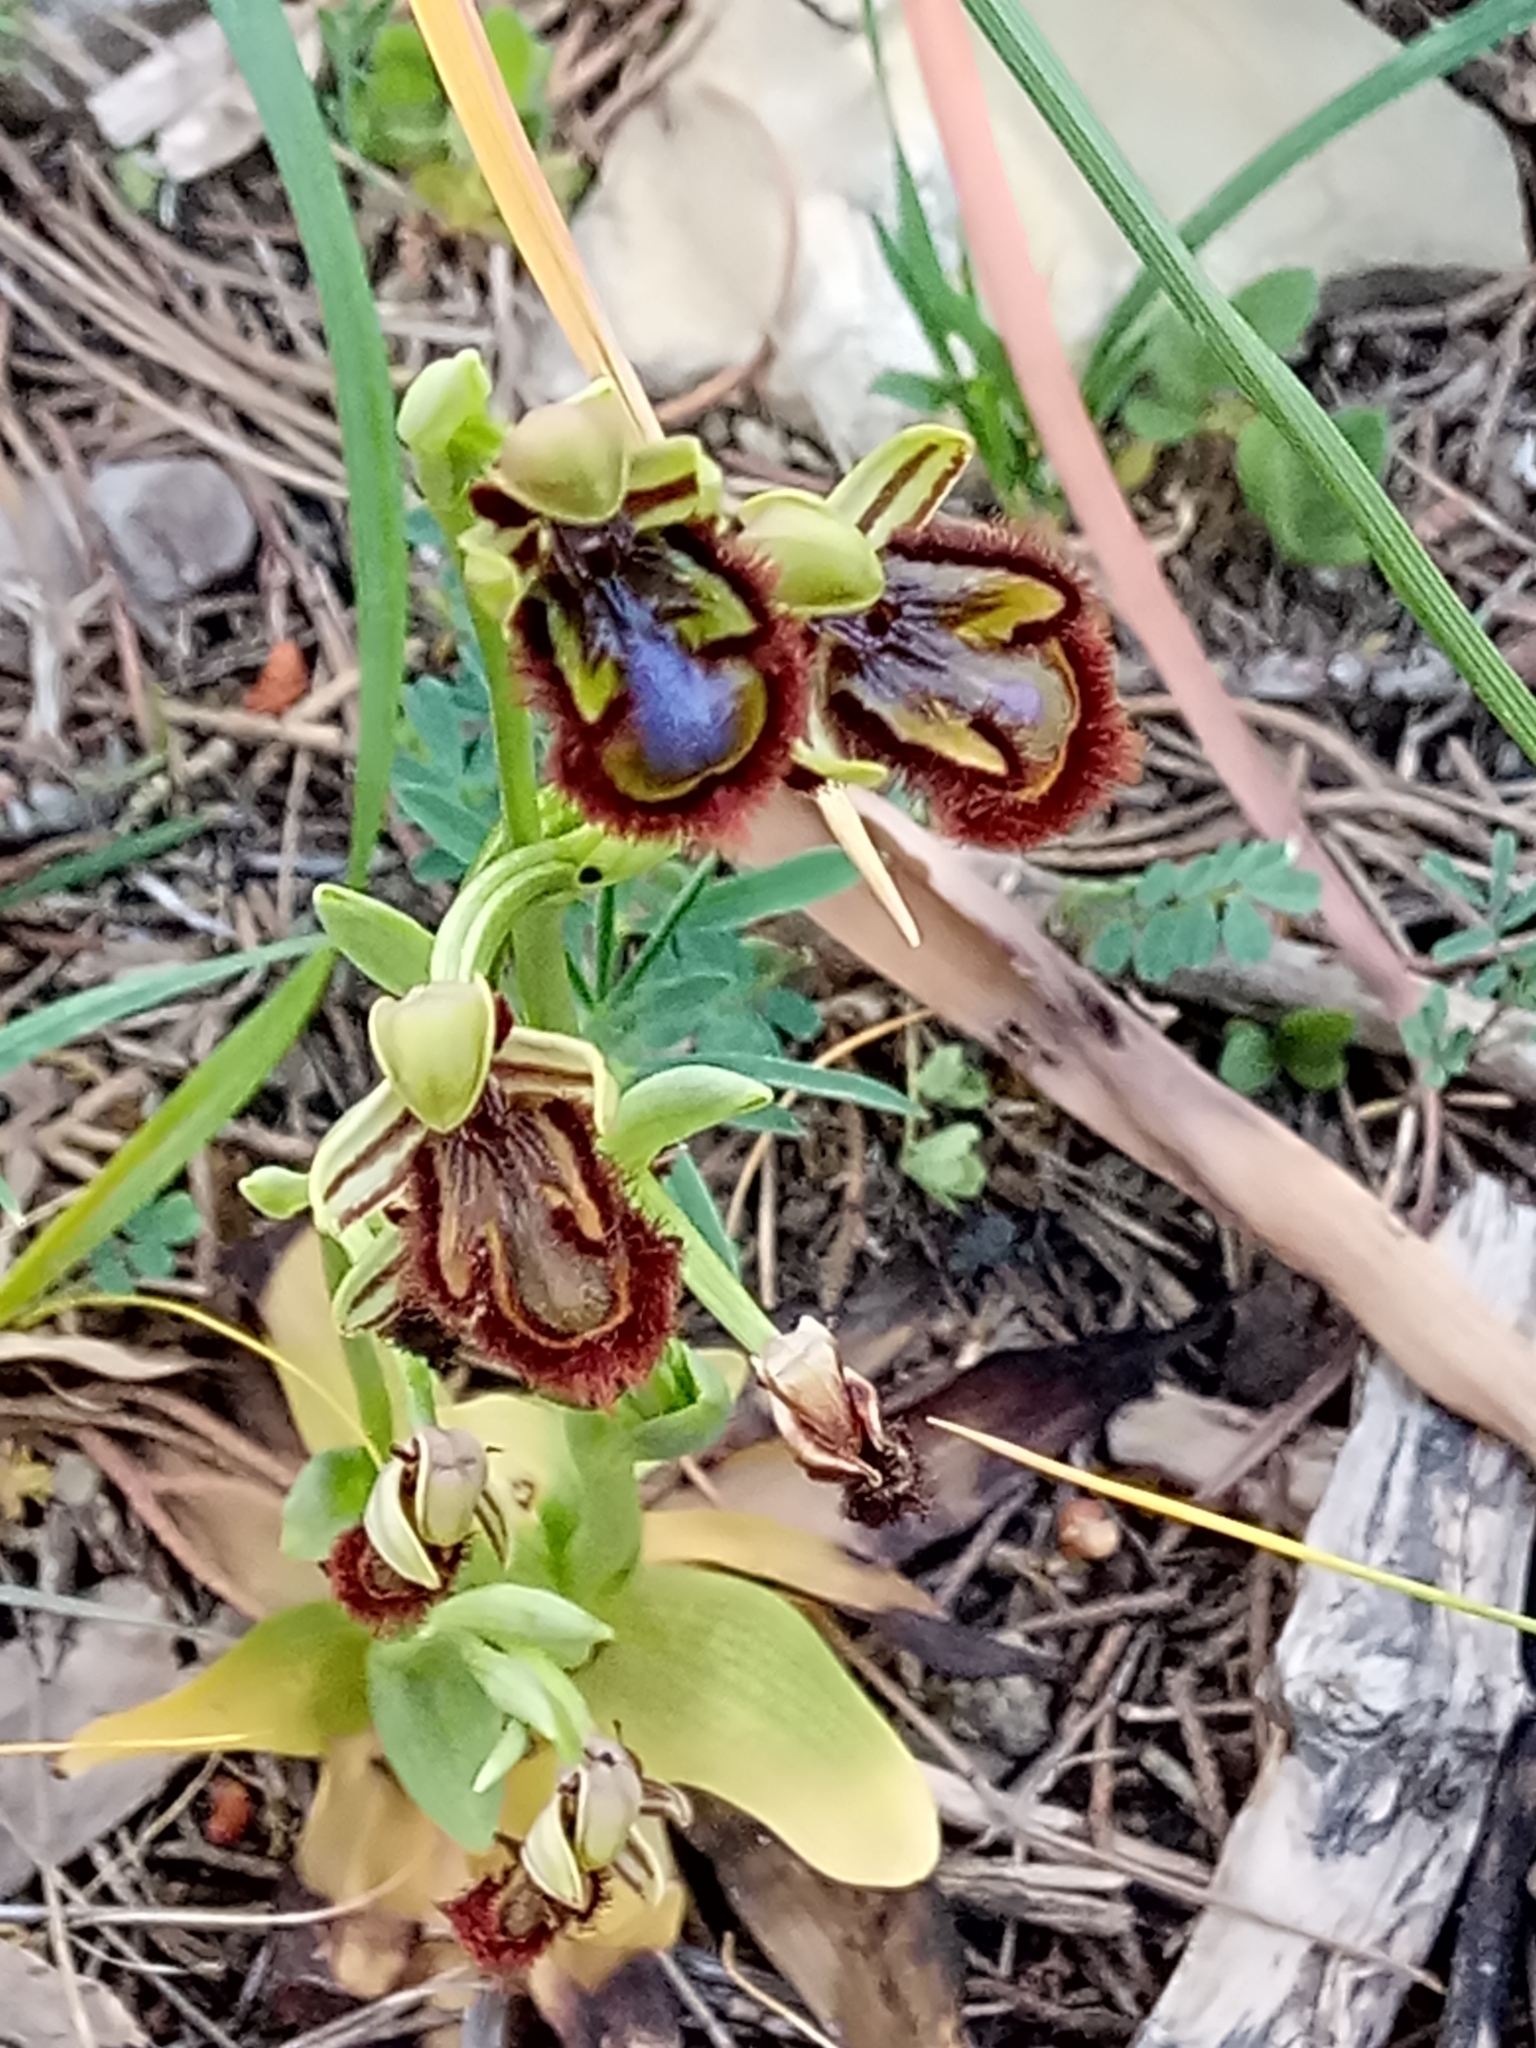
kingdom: Plantae
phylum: Tracheophyta
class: Liliopsida
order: Asparagales
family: Orchidaceae
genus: Ophrys
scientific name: Ophrys speculum
